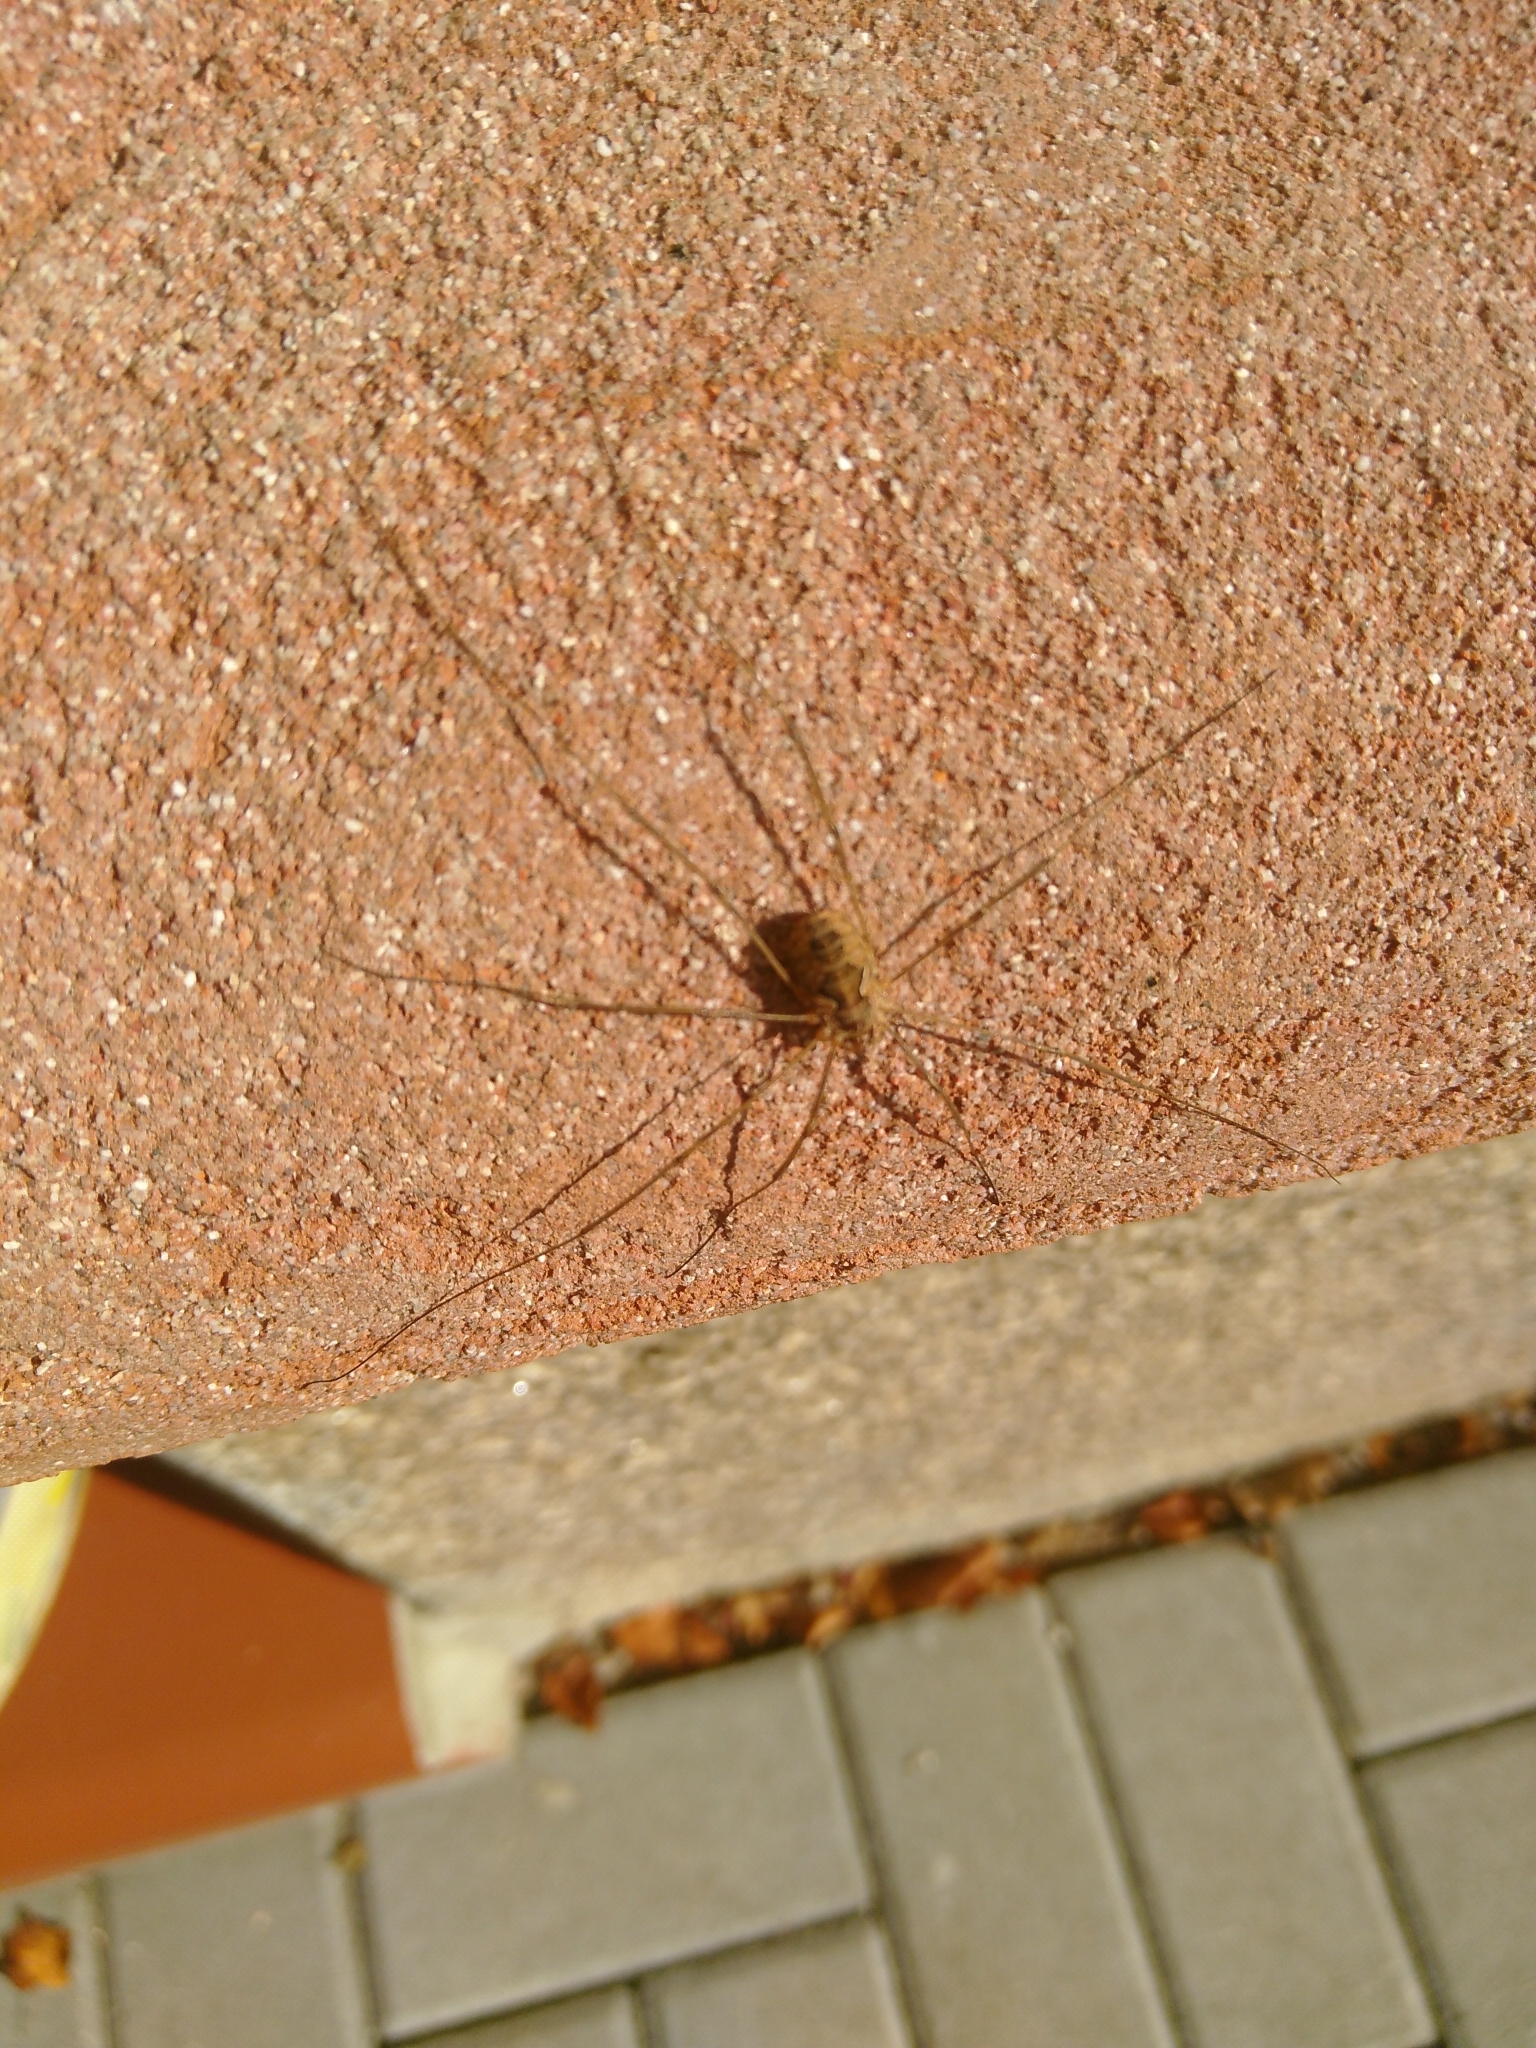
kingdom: Animalia
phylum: Arthropoda
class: Arachnida
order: Opiliones
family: Phalangiidae
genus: Phalangium
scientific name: Phalangium opilio
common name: Daddy longleg
